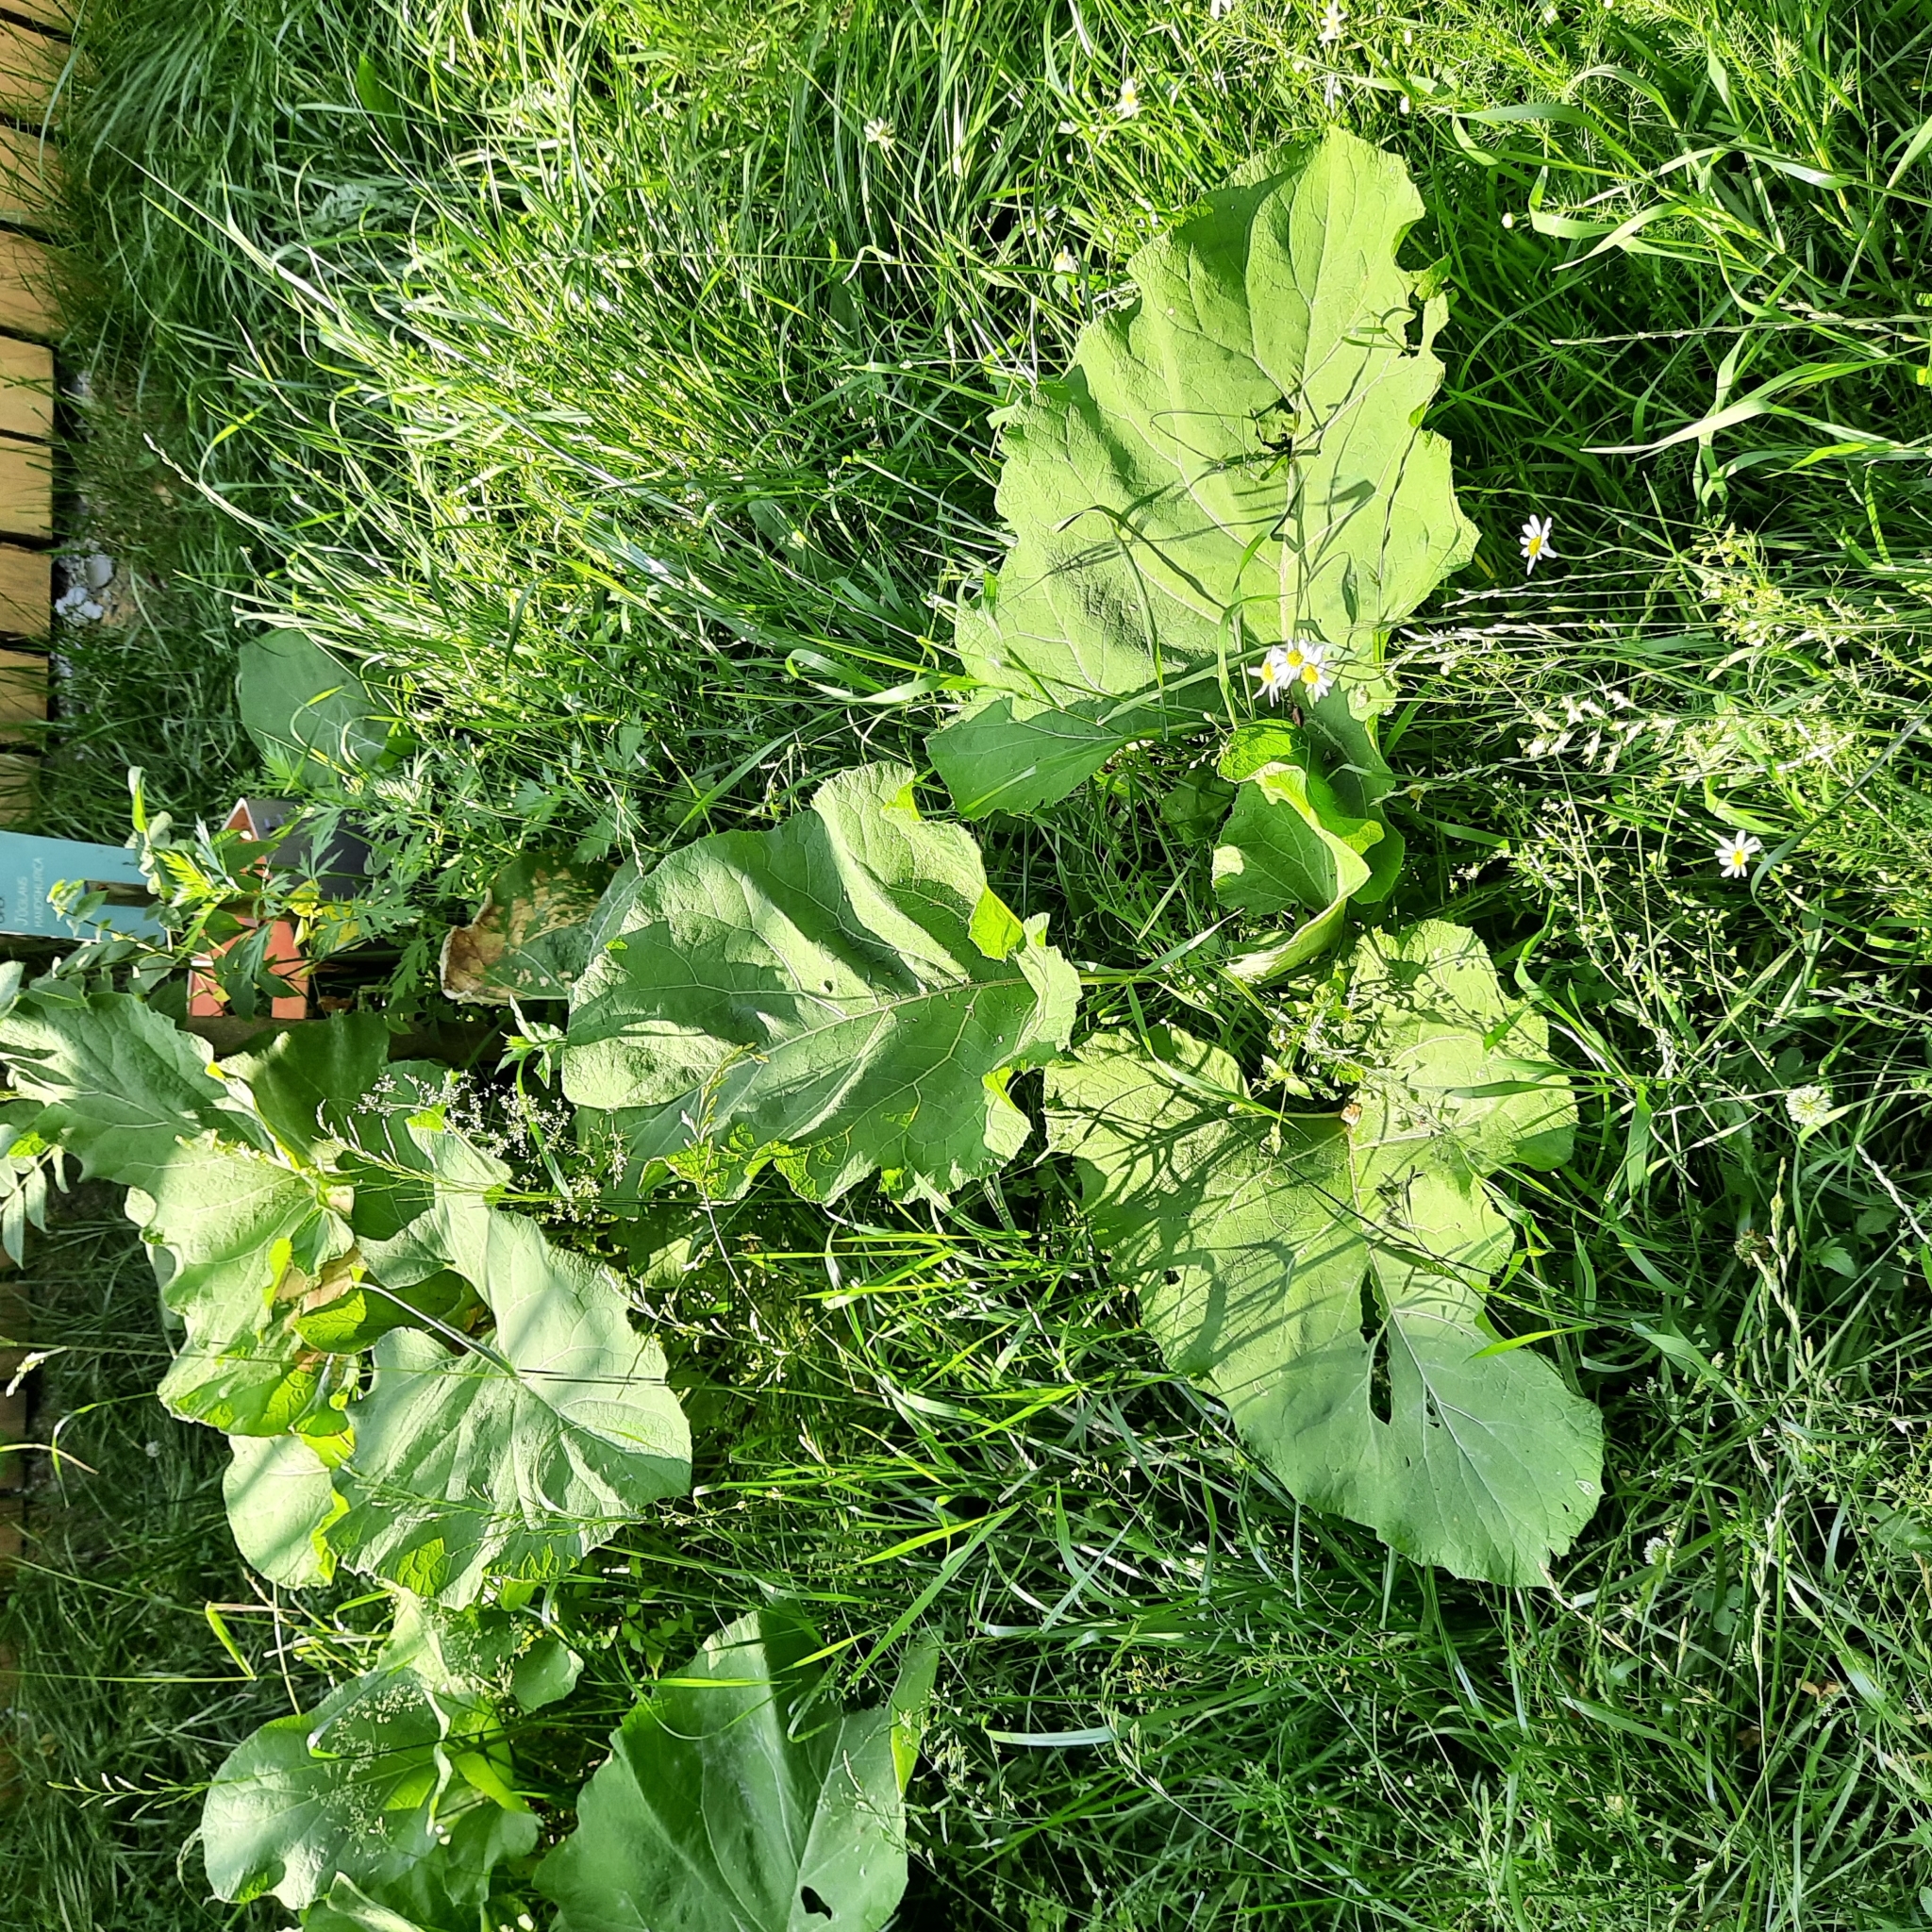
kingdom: Plantae
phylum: Tracheophyta
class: Magnoliopsida
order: Asterales
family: Asteraceae
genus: Arctium
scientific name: Arctium tomentosum
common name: Woolly burdock
